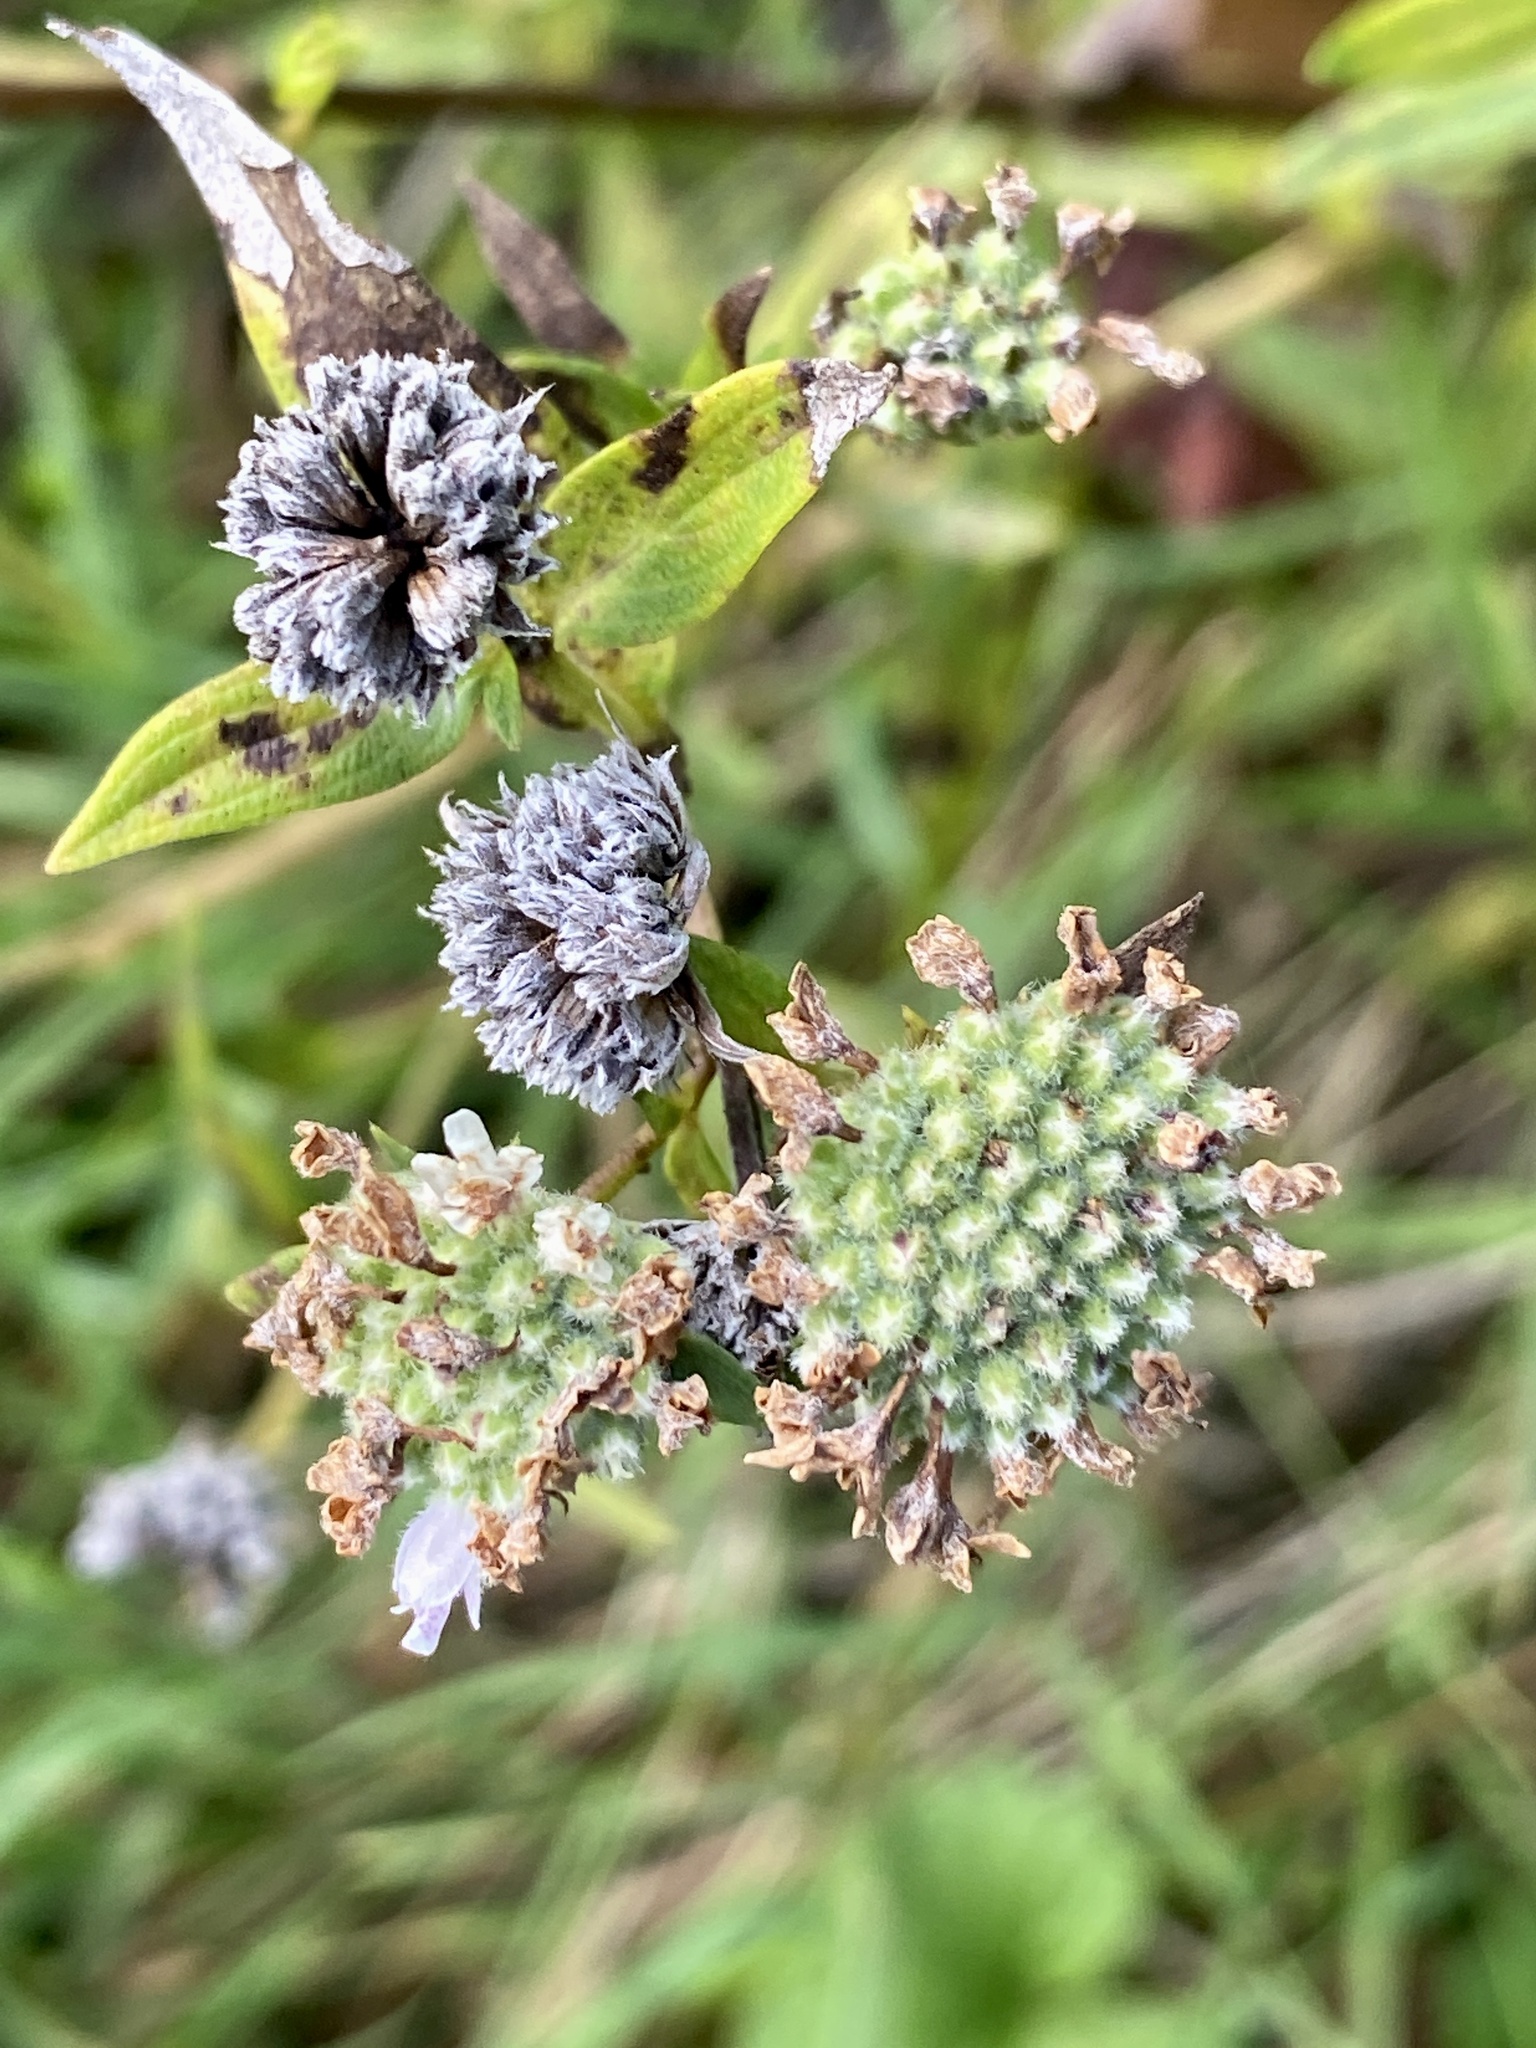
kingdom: Plantae
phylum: Tracheophyta
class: Magnoliopsida
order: Lamiales
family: Lamiaceae
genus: Pycnanthemum
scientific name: Pycnanthemum virginianum
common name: Virginia mountain-mint
